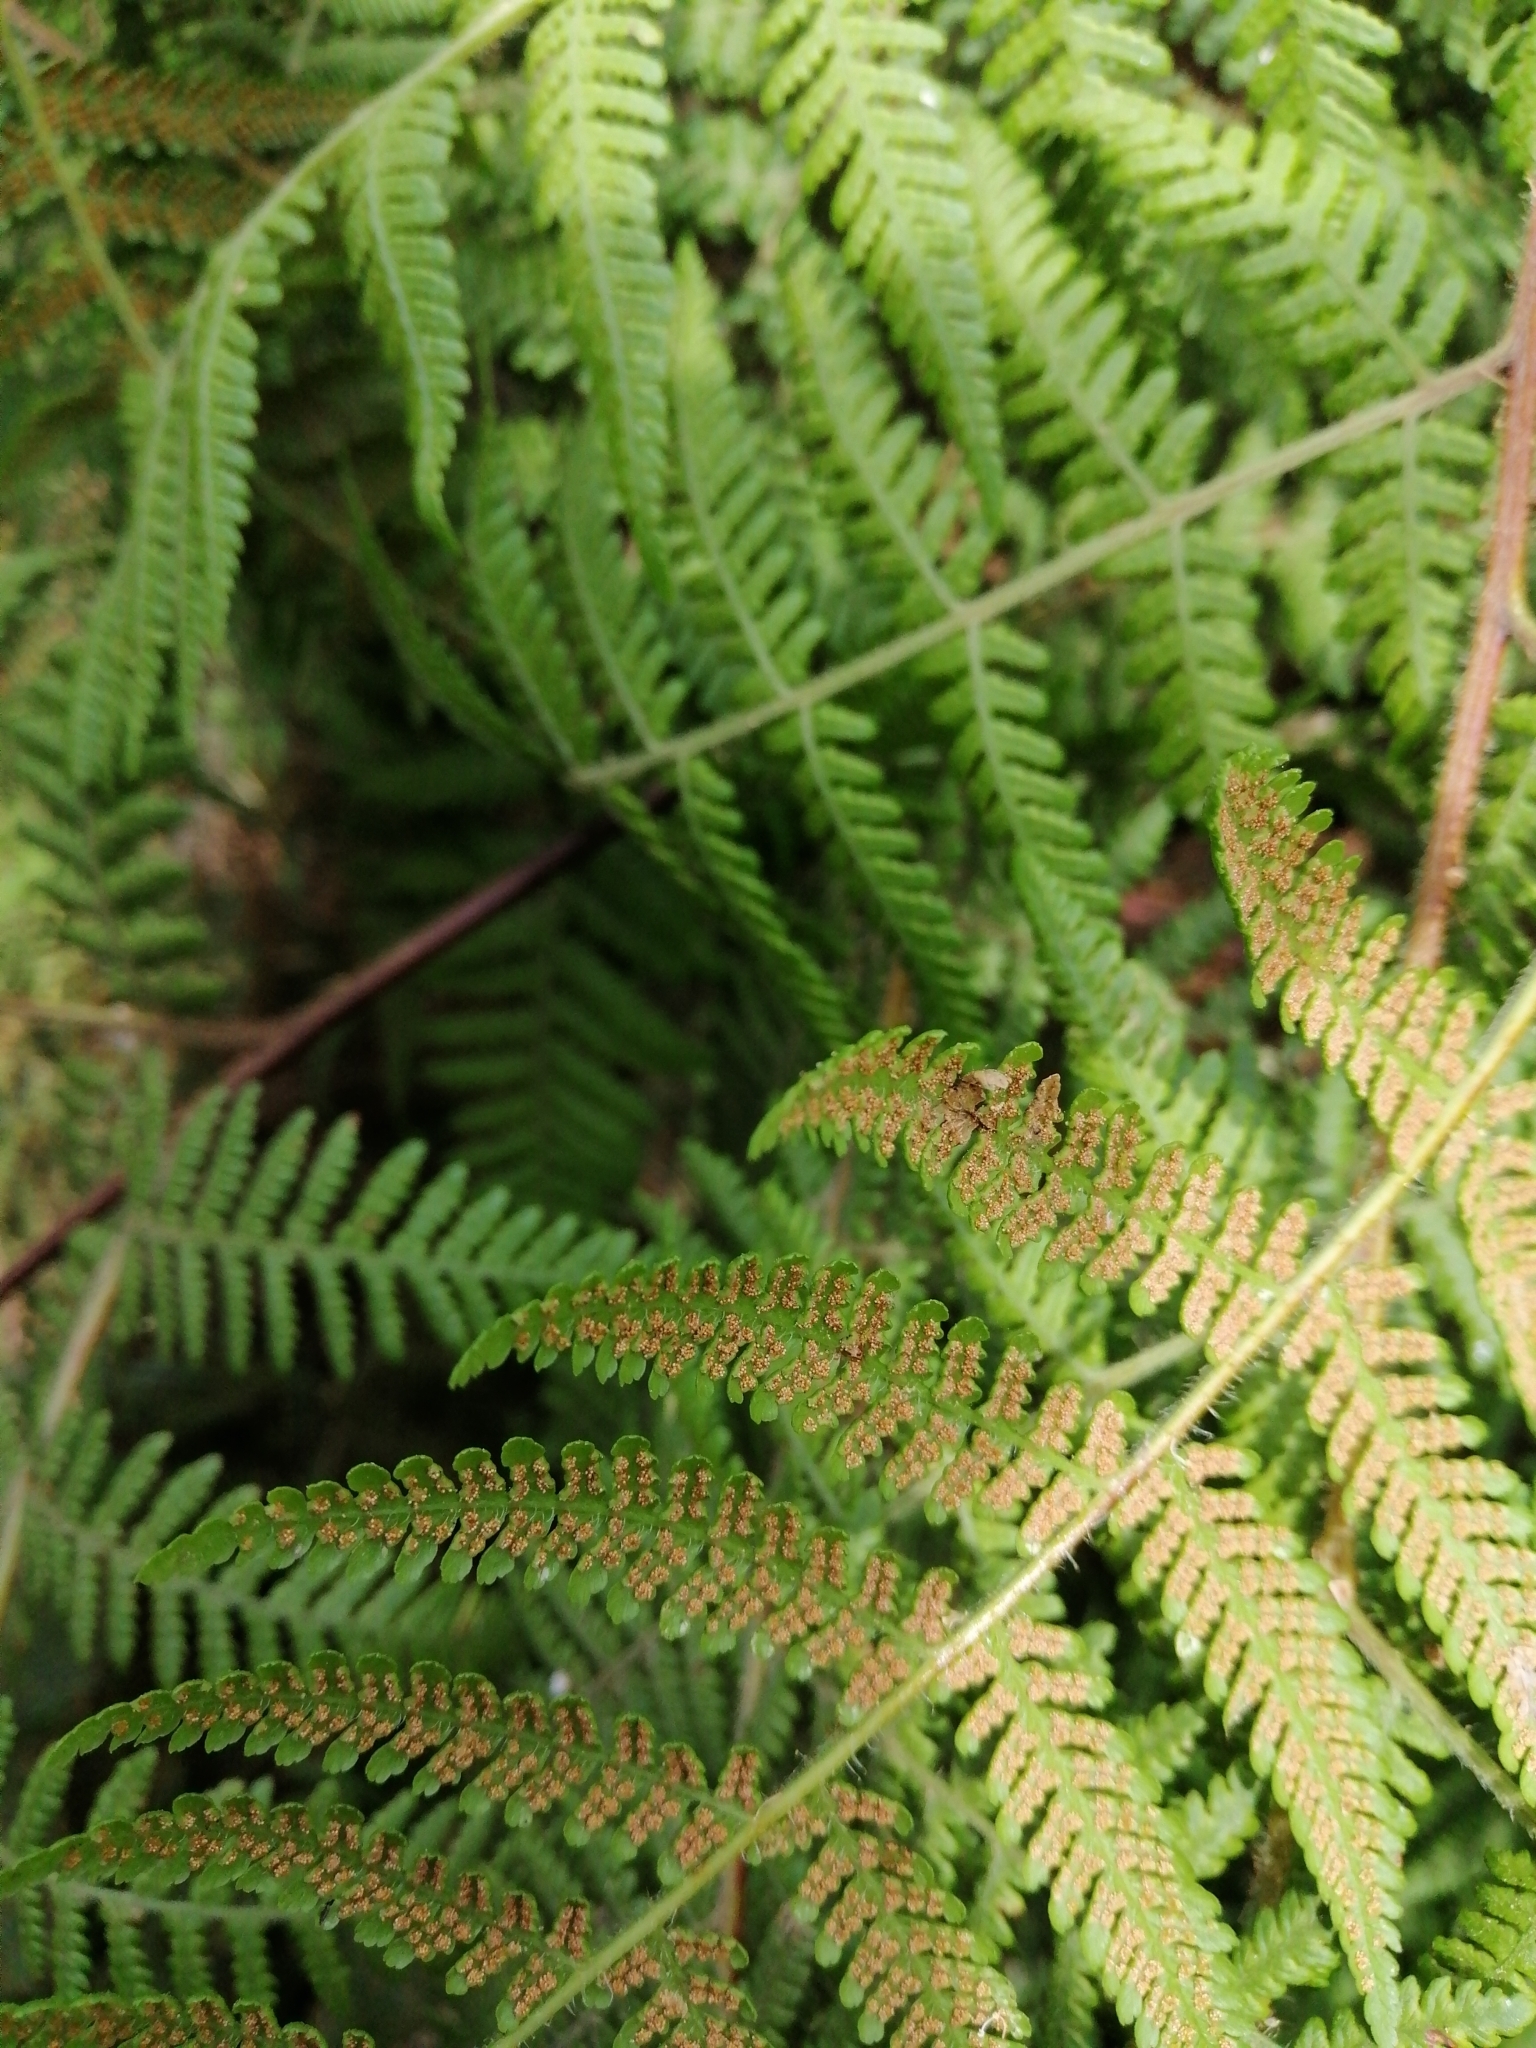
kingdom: Plantae
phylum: Tracheophyta
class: Polypodiopsida
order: Polypodiales
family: Dennstaedtiaceae
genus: Hypolepis
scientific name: Hypolepis ambigua
